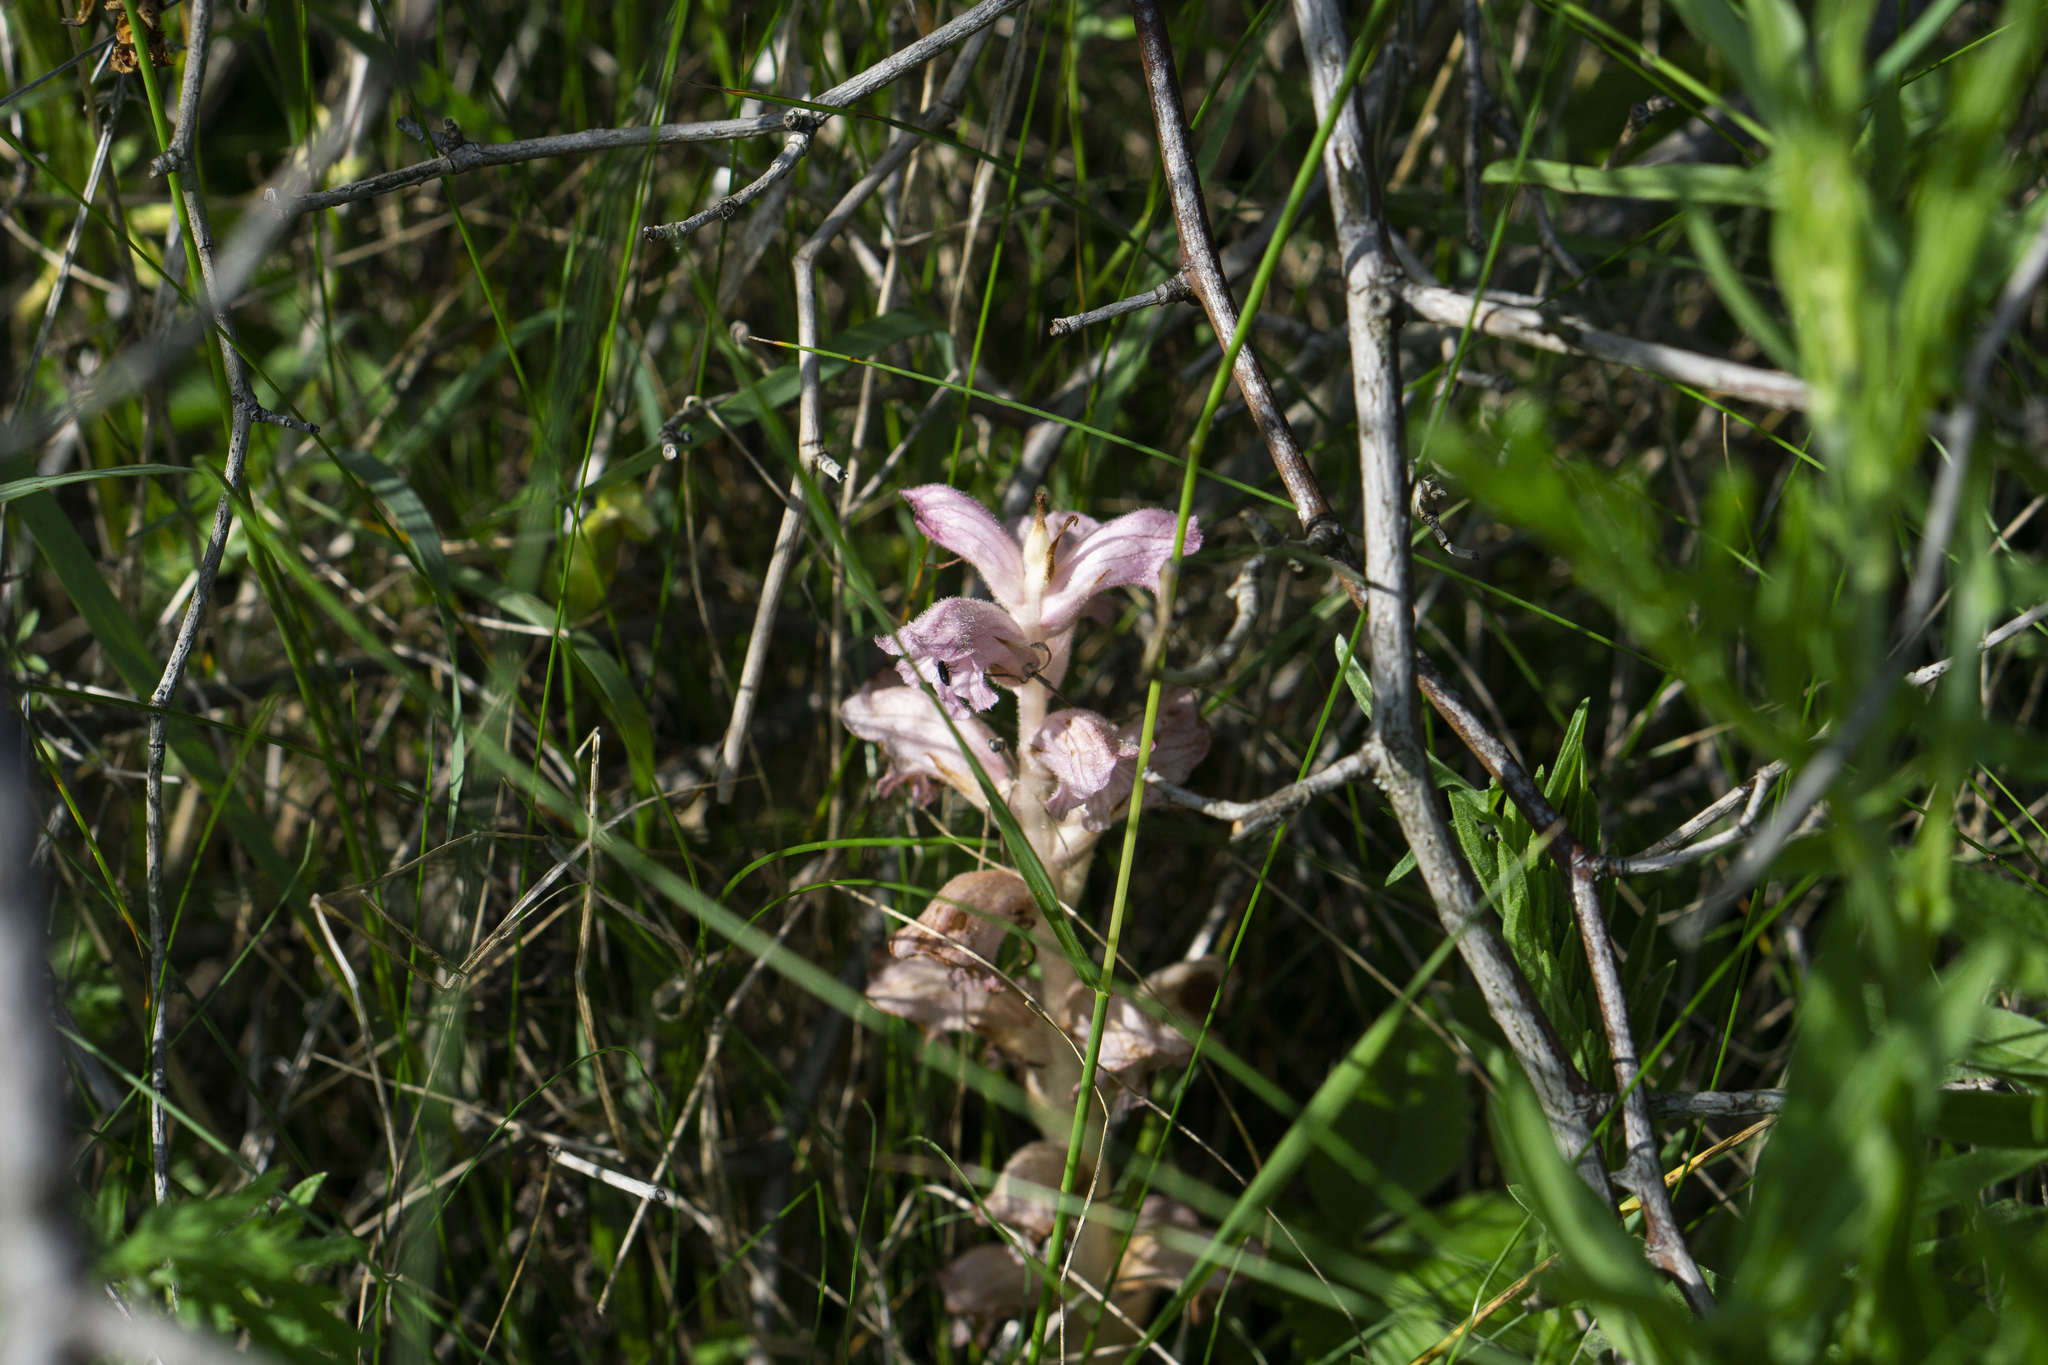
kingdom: Plantae
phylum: Tracheophyta
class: Magnoliopsida
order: Lamiales
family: Orobanchaceae
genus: Orobanche
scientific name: Orobanche caryophyllacea
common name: Bedstraw broomrape
